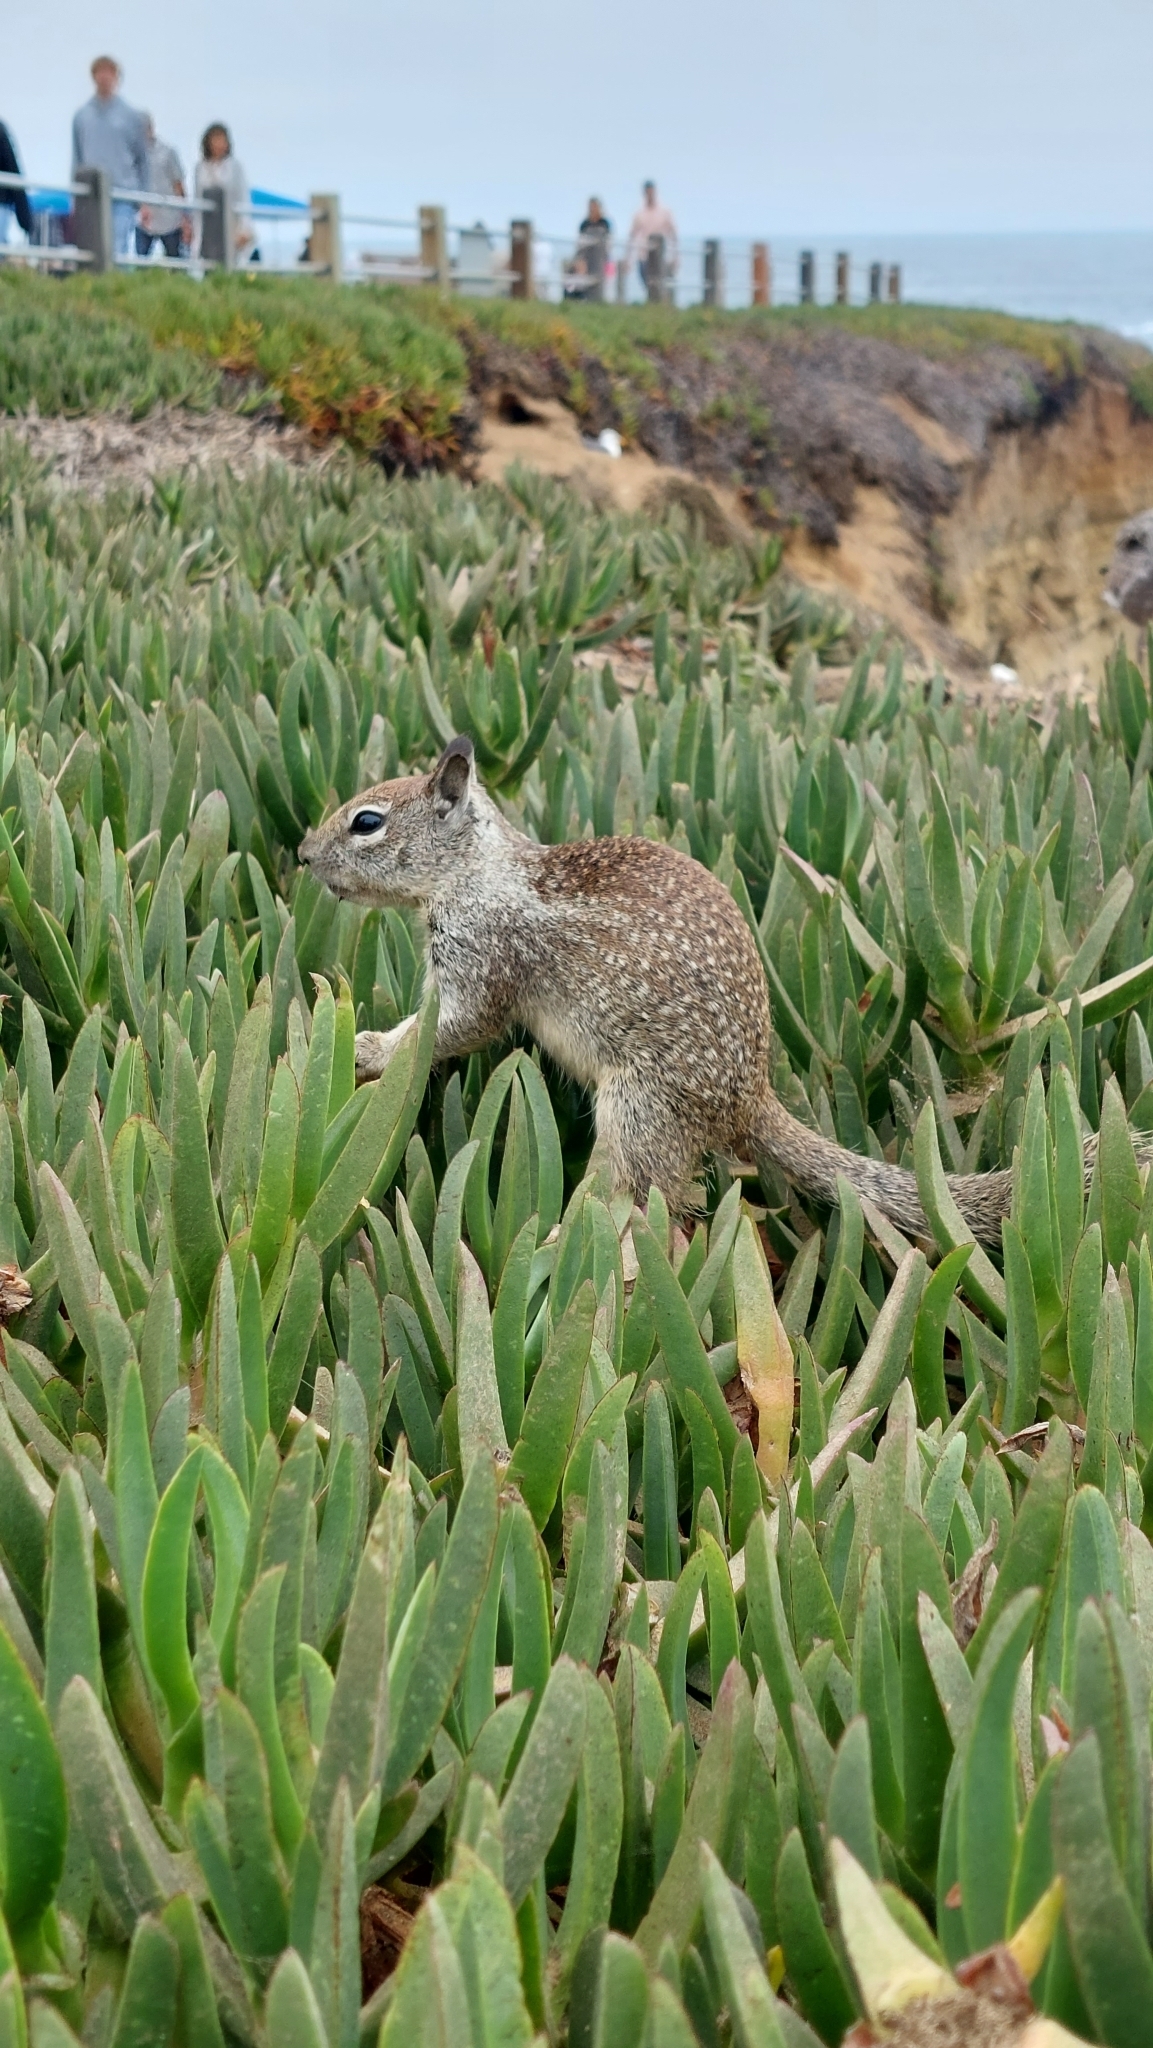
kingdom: Animalia
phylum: Chordata
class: Mammalia
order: Rodentia
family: Sciuridae
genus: Otospermophilus
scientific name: Otospermophilus beecheyi
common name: California ground squirrel
